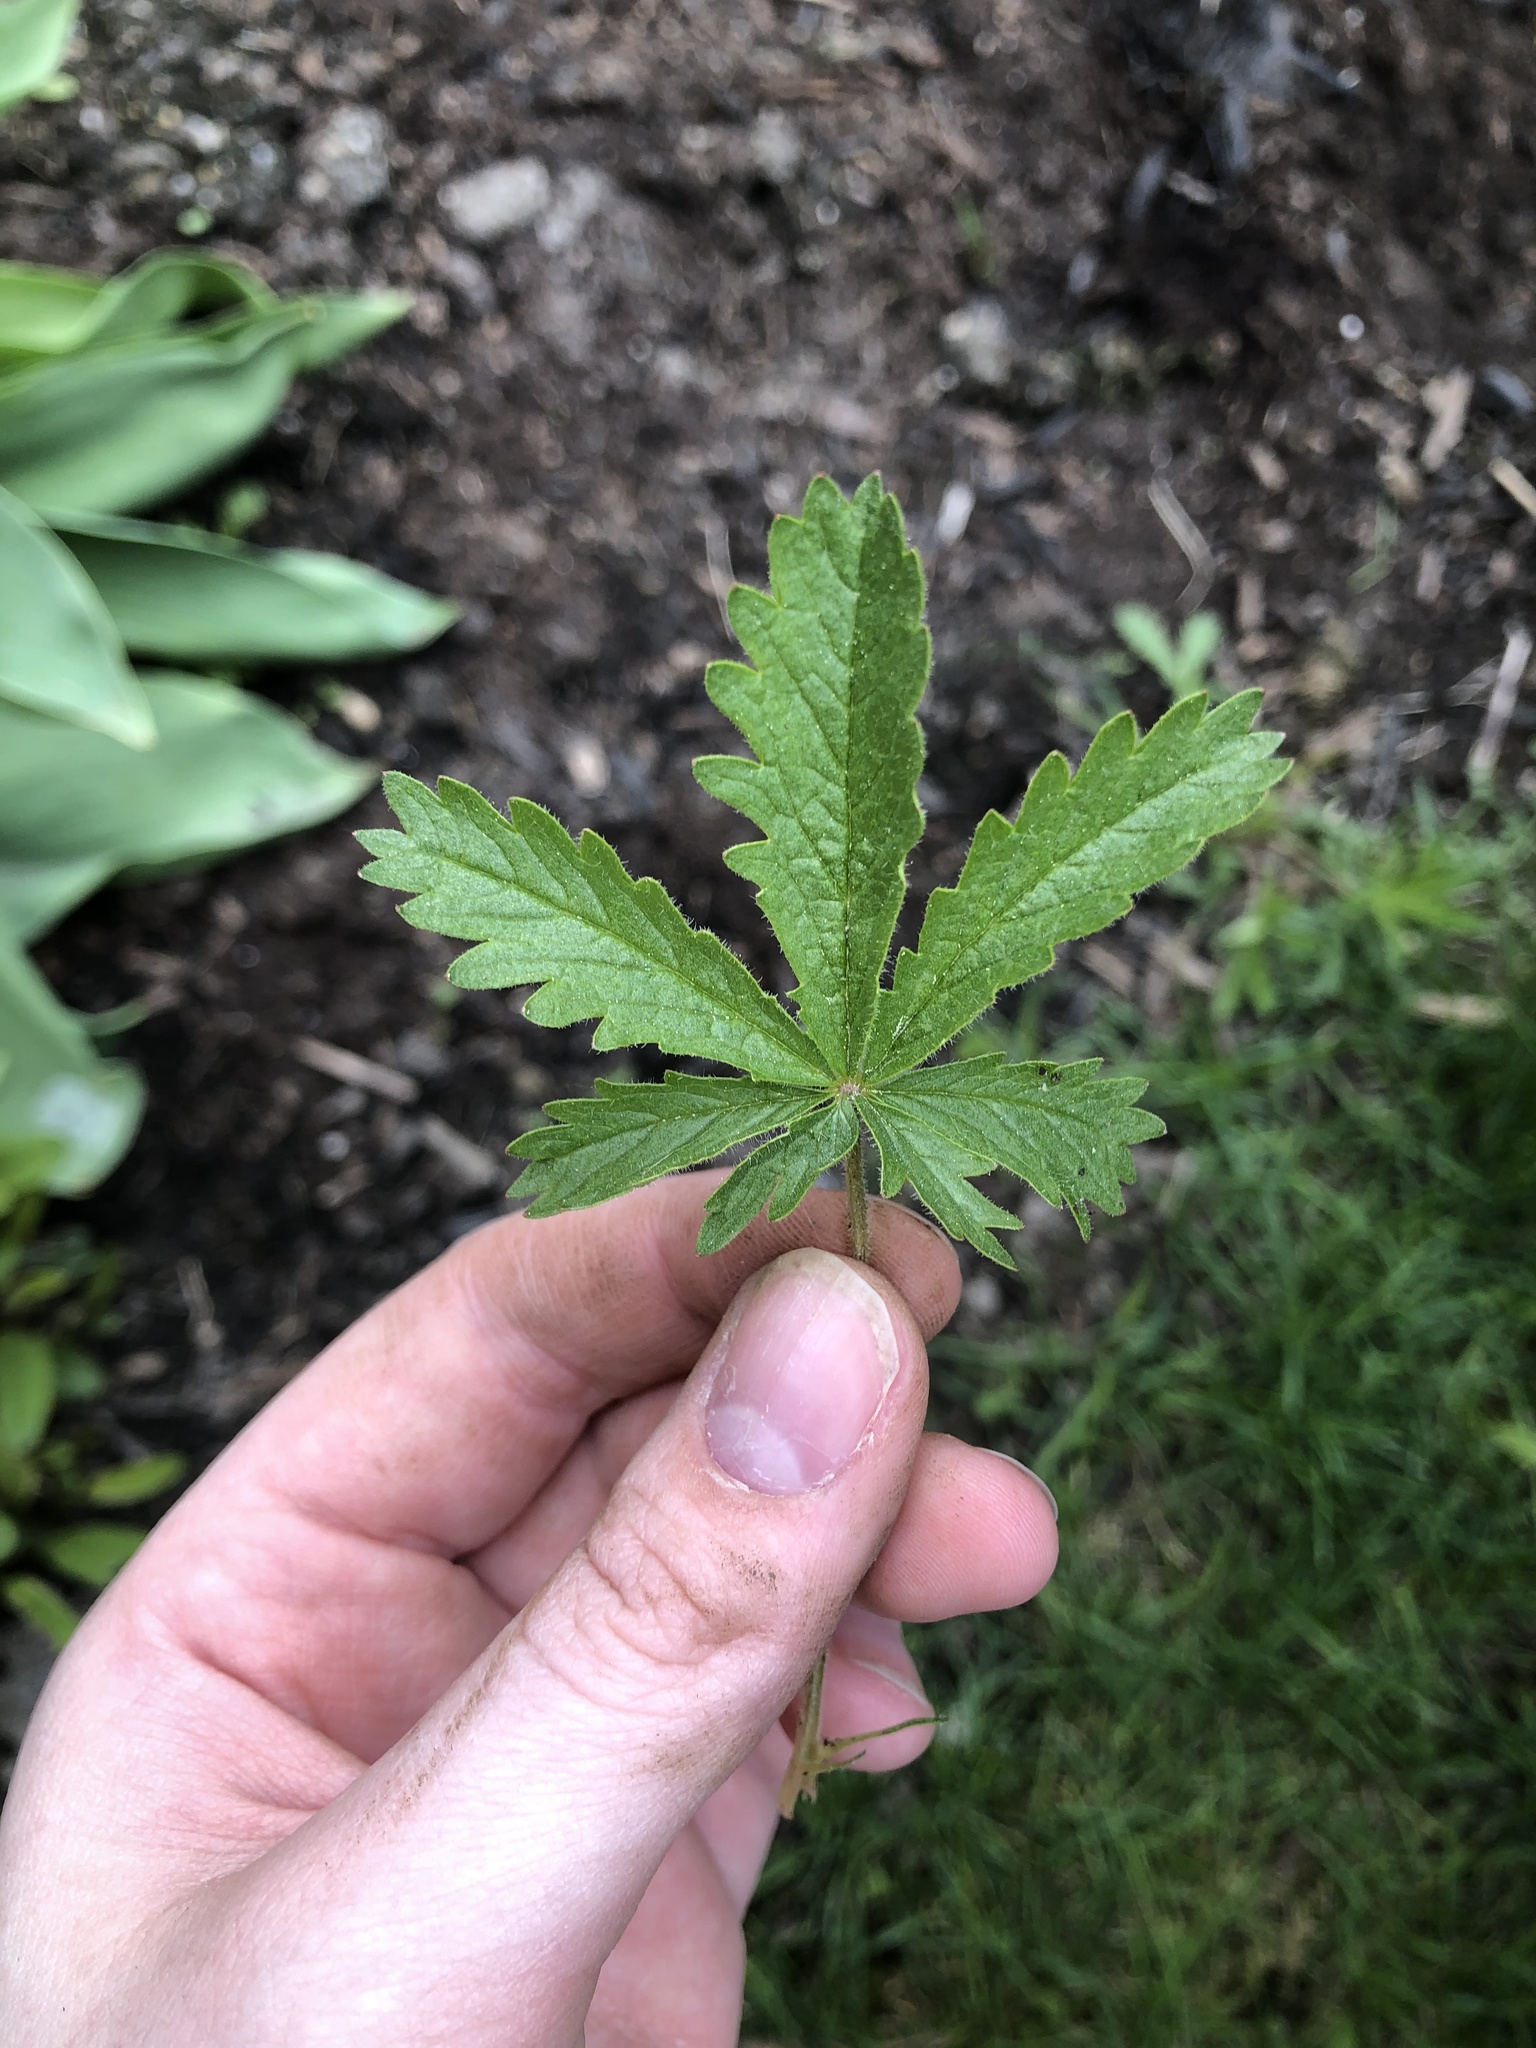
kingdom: Plantae
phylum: Tracheophyta
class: Magnoliopsida
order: Rosales
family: Rosaceae
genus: Potentilla
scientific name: Potentilla recta
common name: Sulphur cinquefoil
